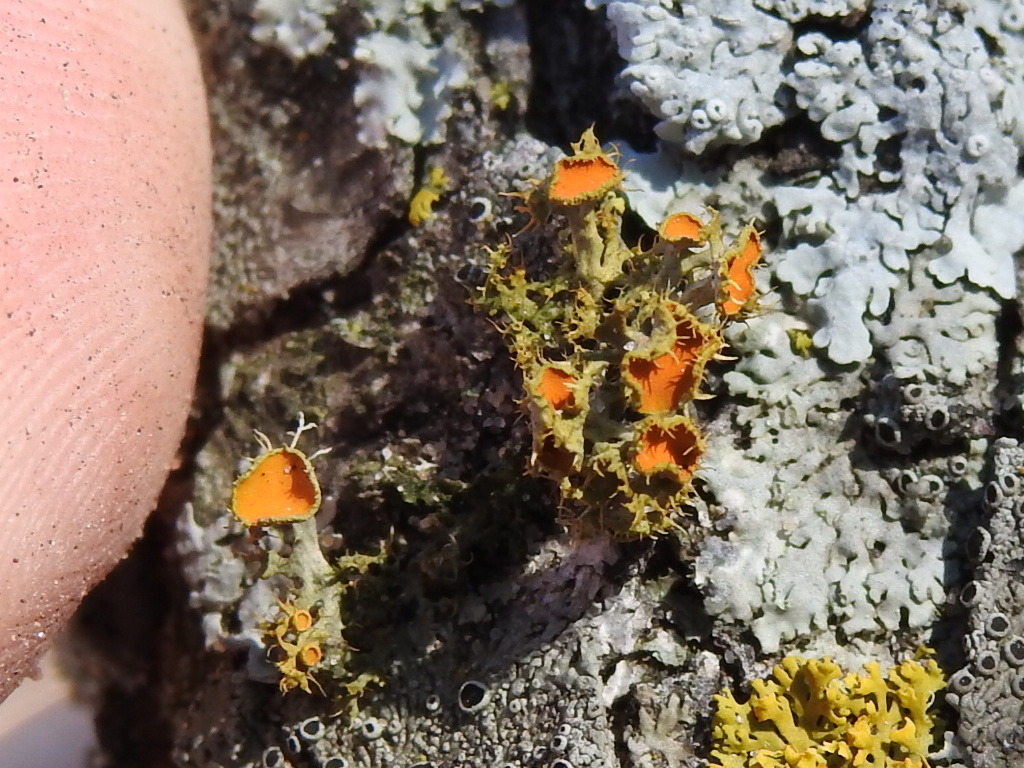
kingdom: Fungi
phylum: Ascomycota
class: Lecanoromycetes
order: Teloschistales
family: Teloschistaceae
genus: Niorma
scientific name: Niorma chrysophthalma
